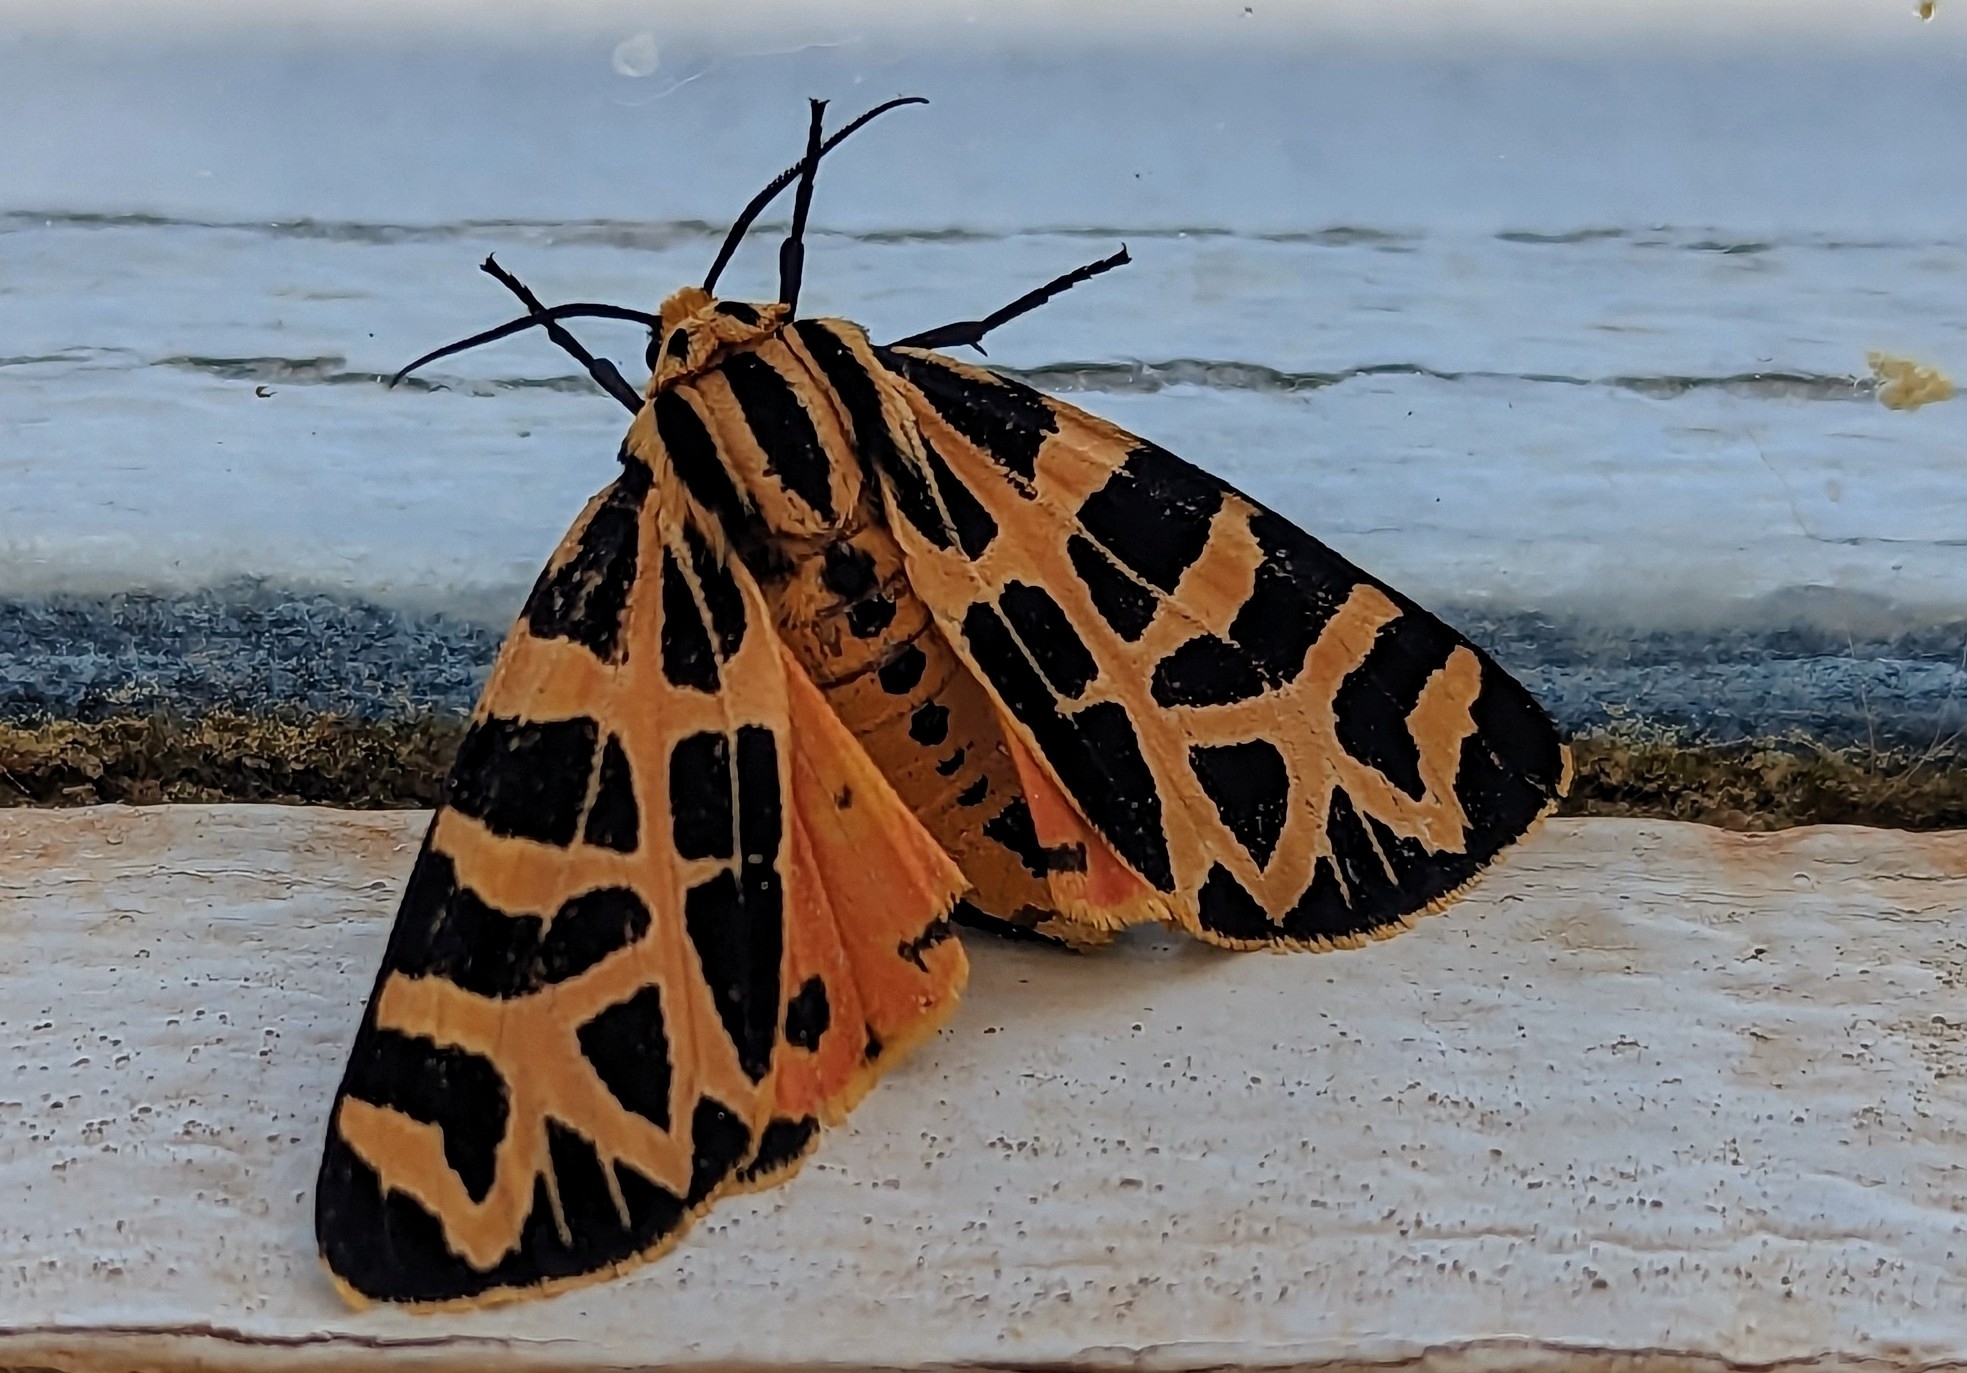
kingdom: Animalia
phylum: Arthropoda
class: Insecta
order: Lepidoptera
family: Erebidae
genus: Apantesis
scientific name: Apantesis
